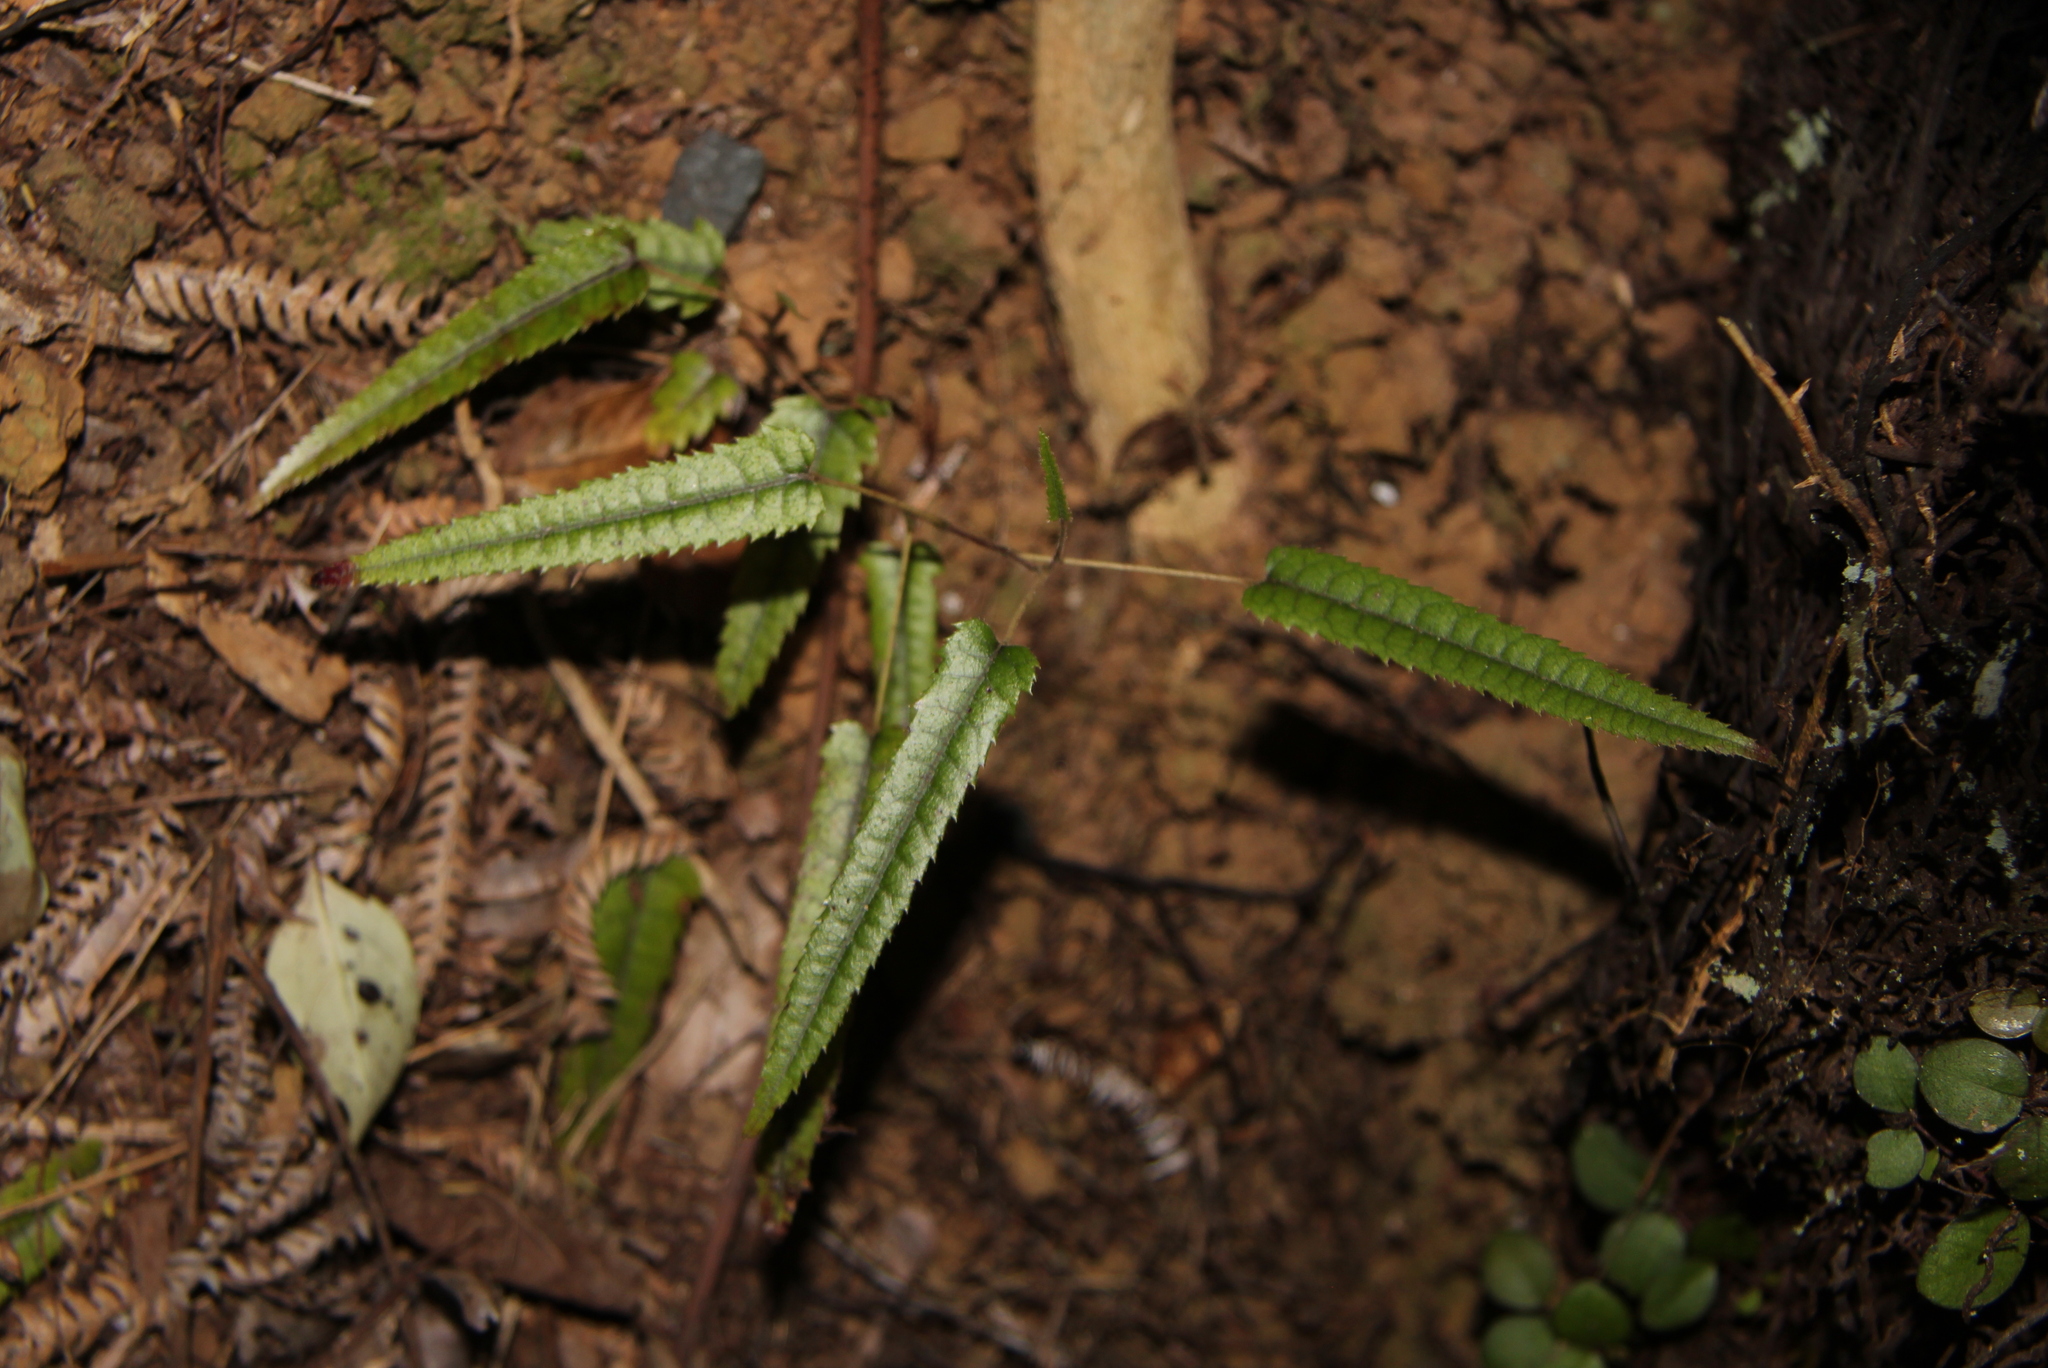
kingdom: Plantae
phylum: Tracheophyta
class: Magnoliopsida
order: Rosales
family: Rosaceae
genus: Rubus
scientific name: Rubus cissoides
